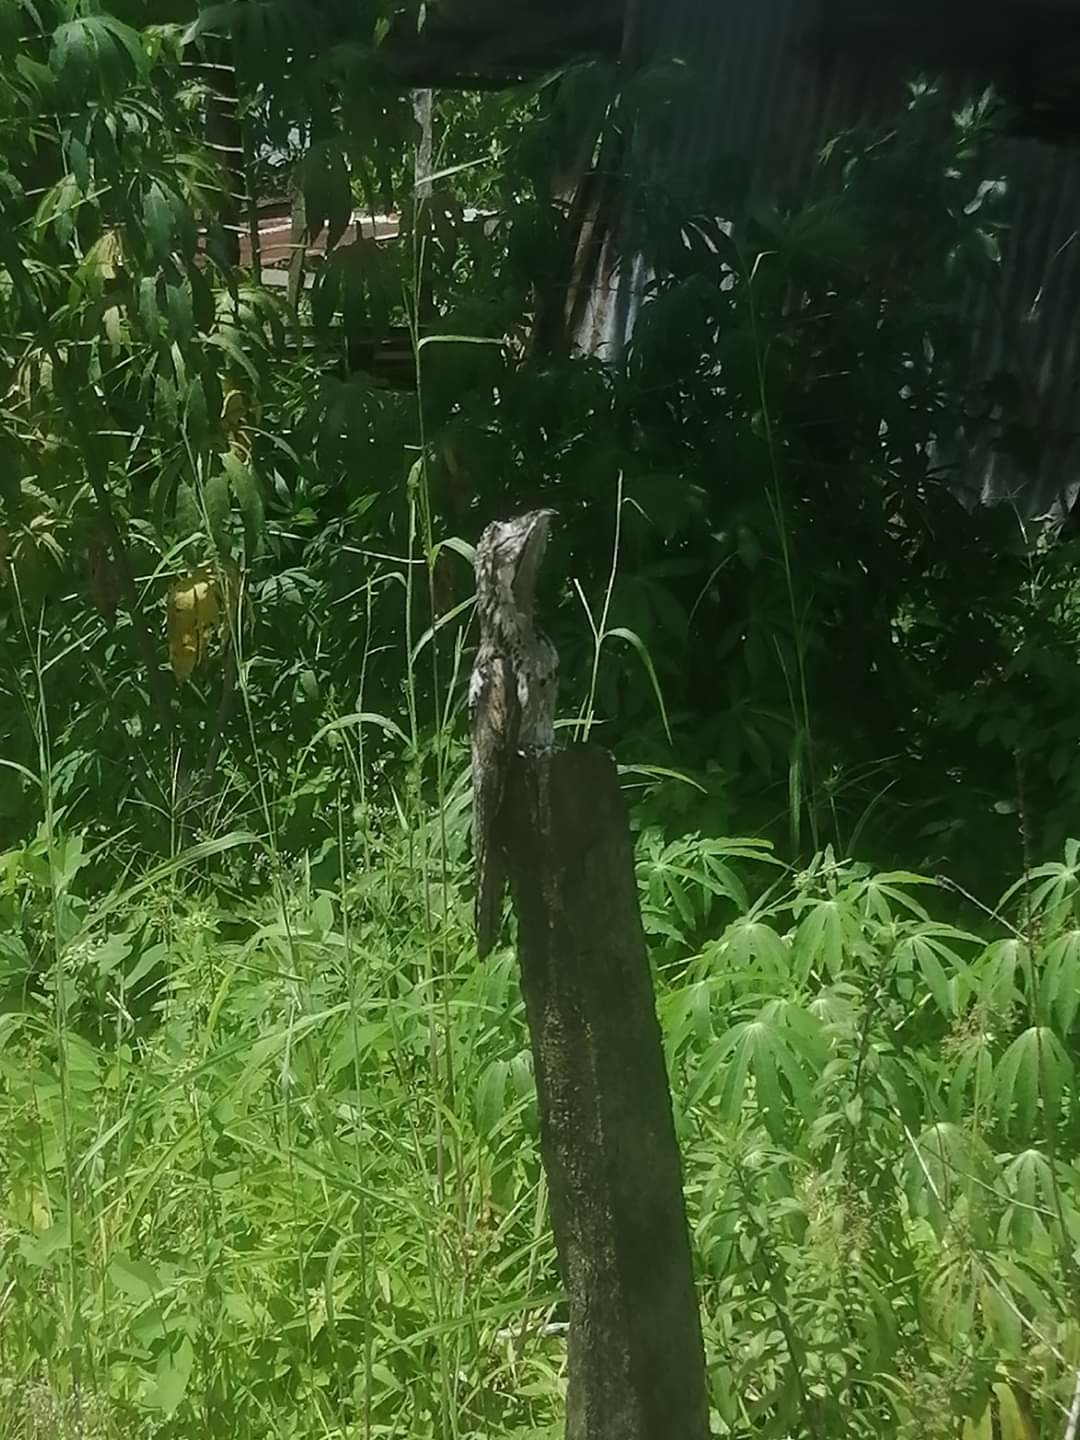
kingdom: Animalia
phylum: Chordata
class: Aves
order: Nyctibiiformes
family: Nyctibiidae
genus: Nyctibius
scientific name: Nyctibius grandis
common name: Great potoo
